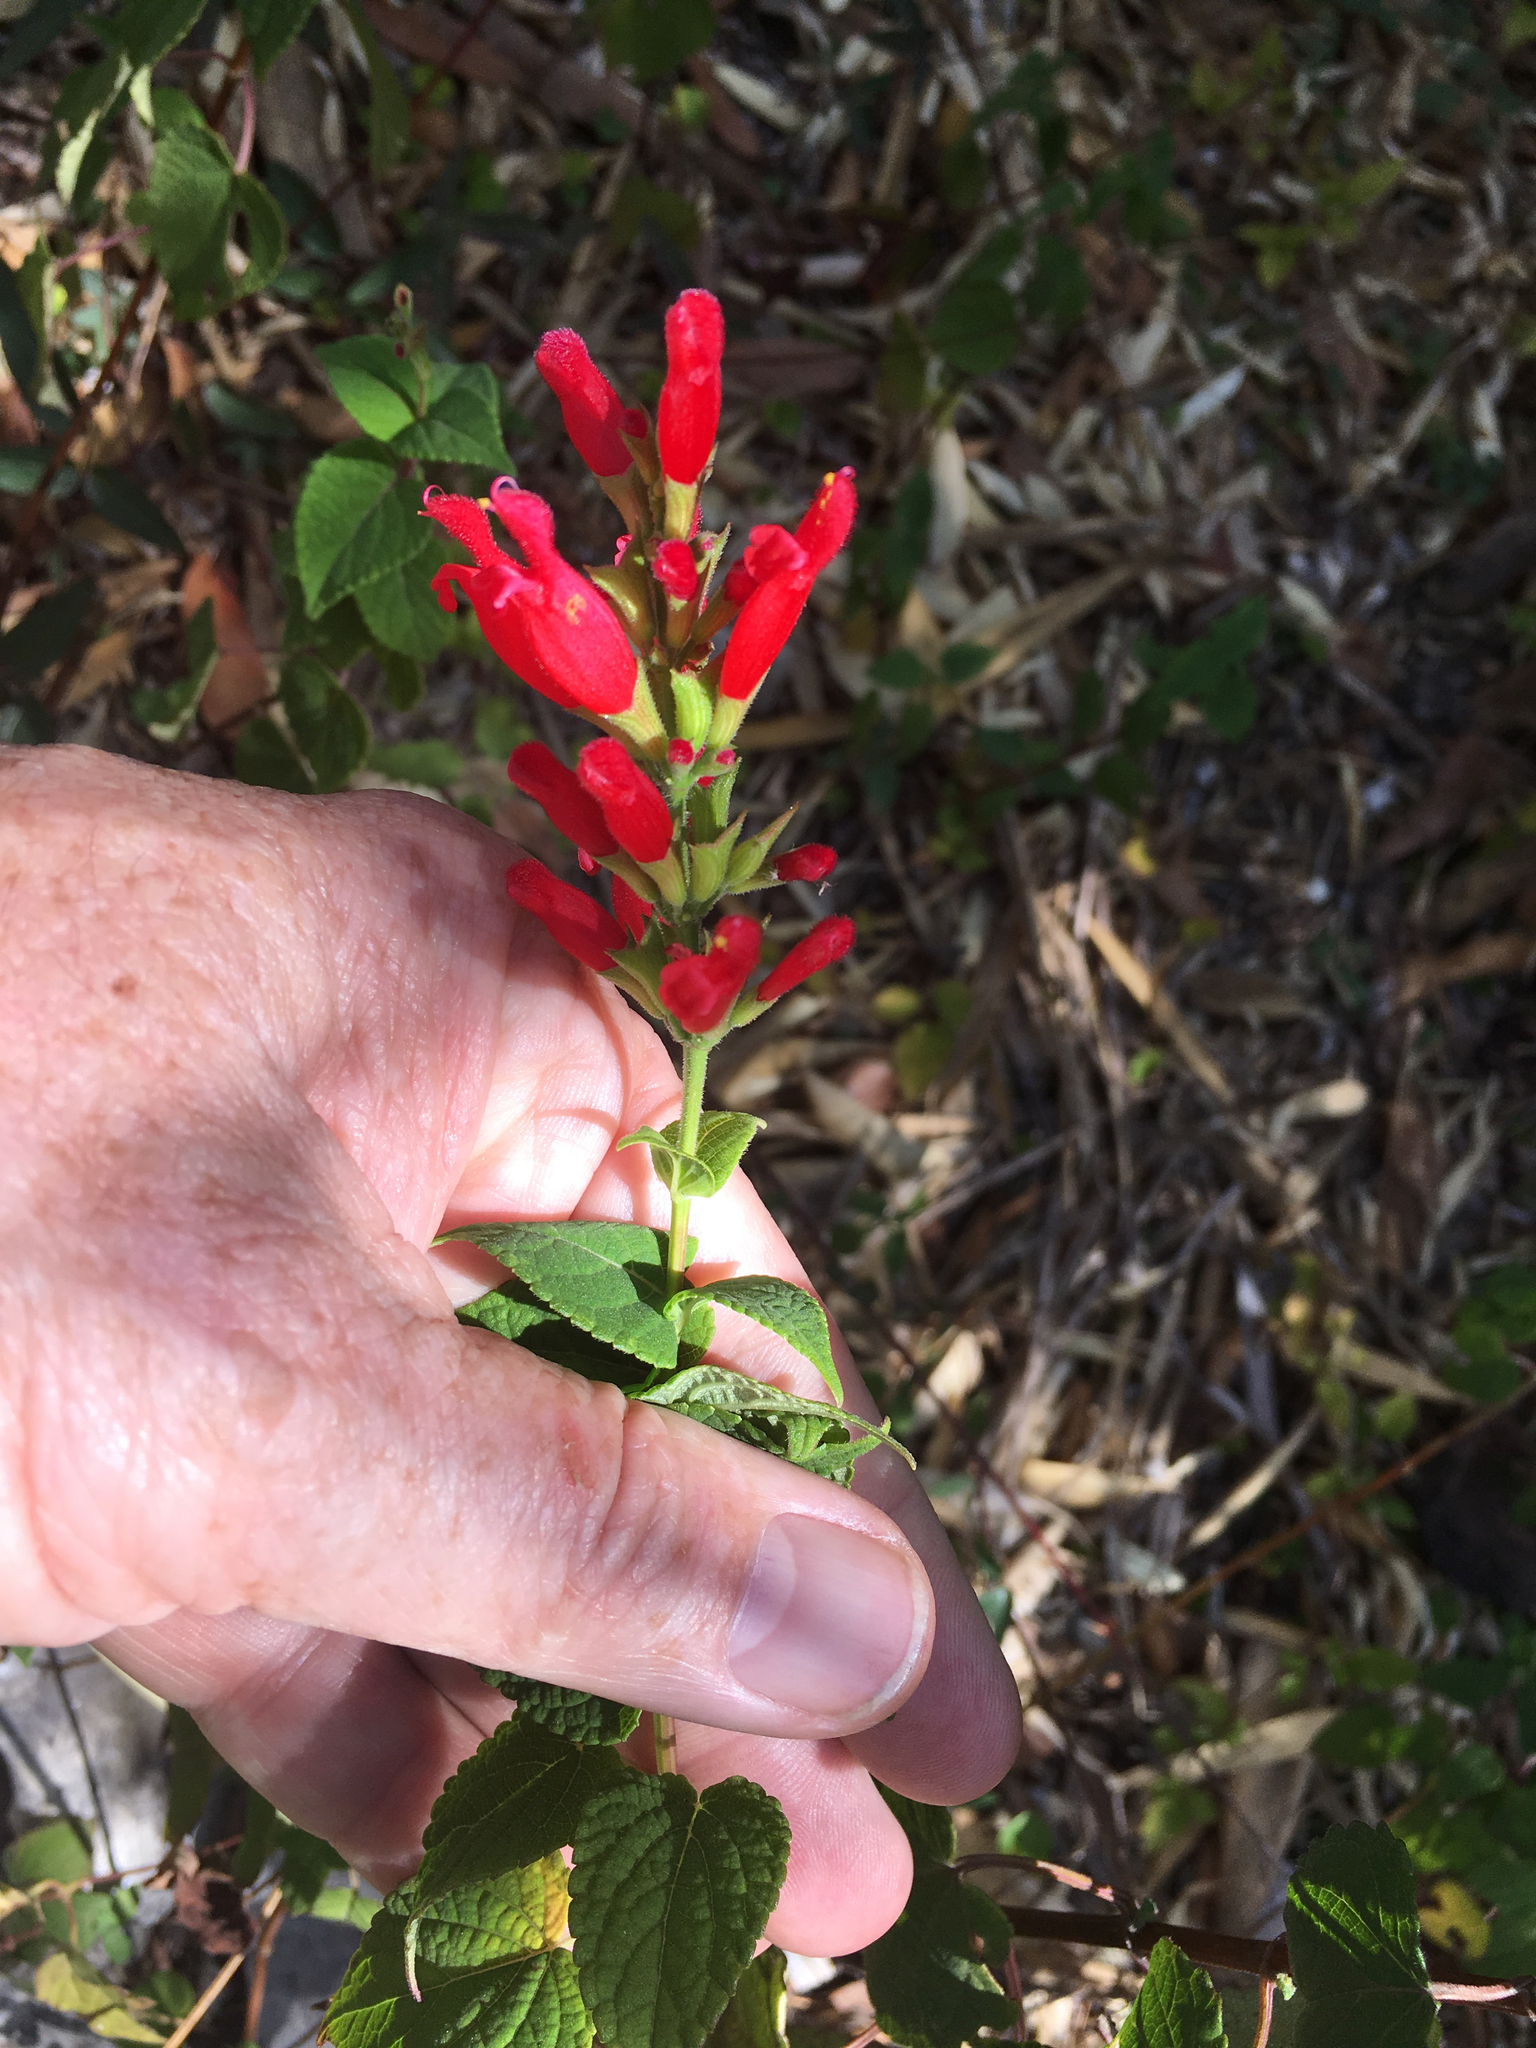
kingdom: Plantae
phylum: Tracheophyta
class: Magnoliopsida
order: Lamiales
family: Lamiaceae
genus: Salvia
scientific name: Salvia holwayi
